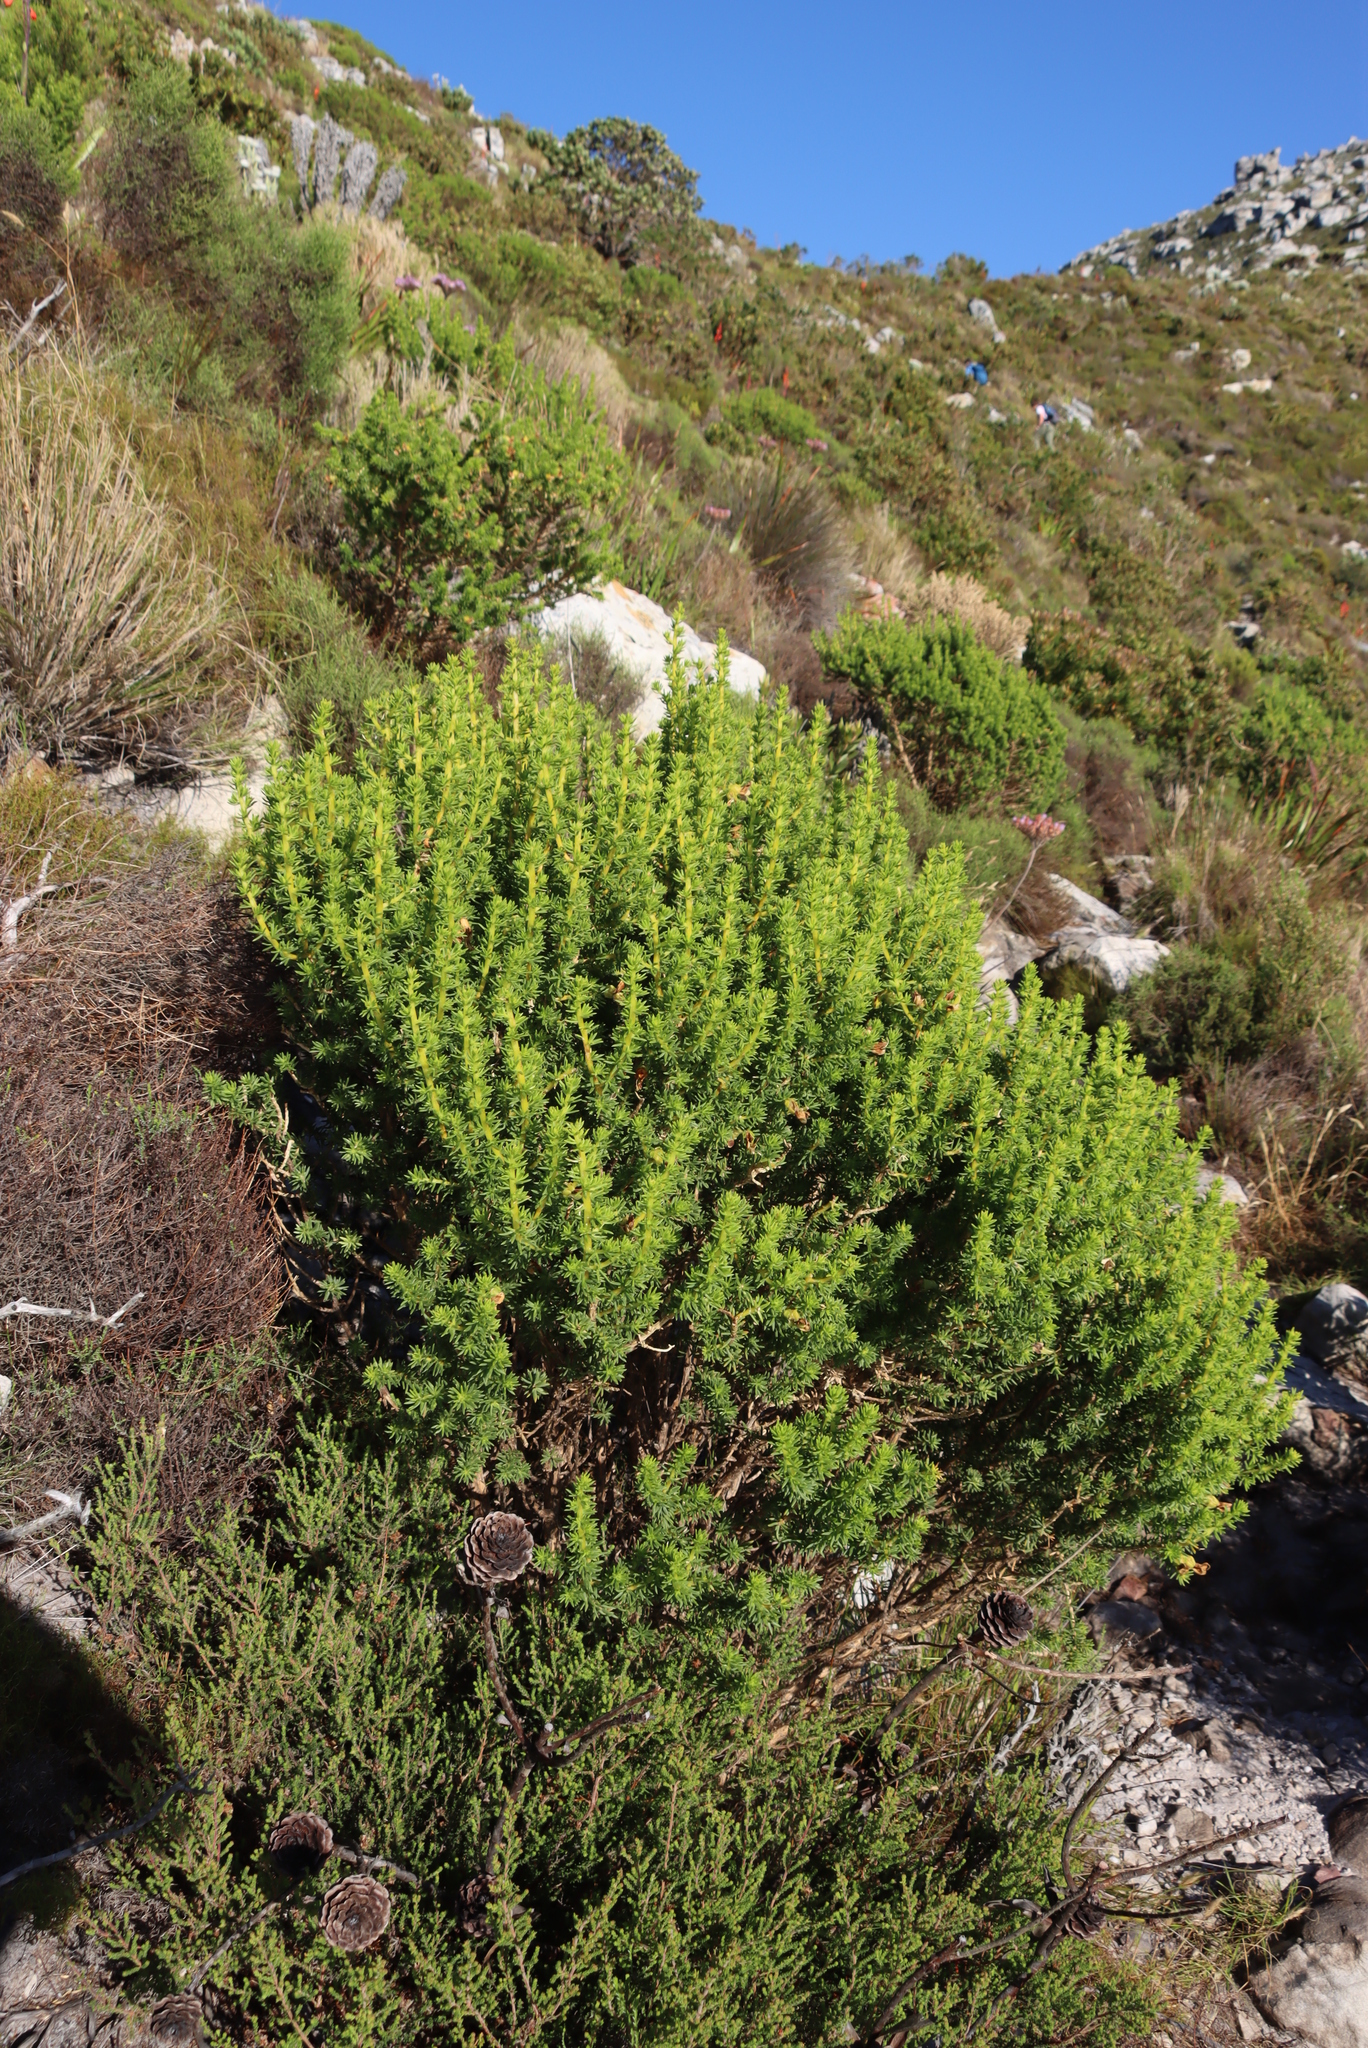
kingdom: Plantae
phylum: Tracheophyta
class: Magnoliopsida
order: Fabales
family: Fabaceae
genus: Aspalathus
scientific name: Aspalathus capensis
